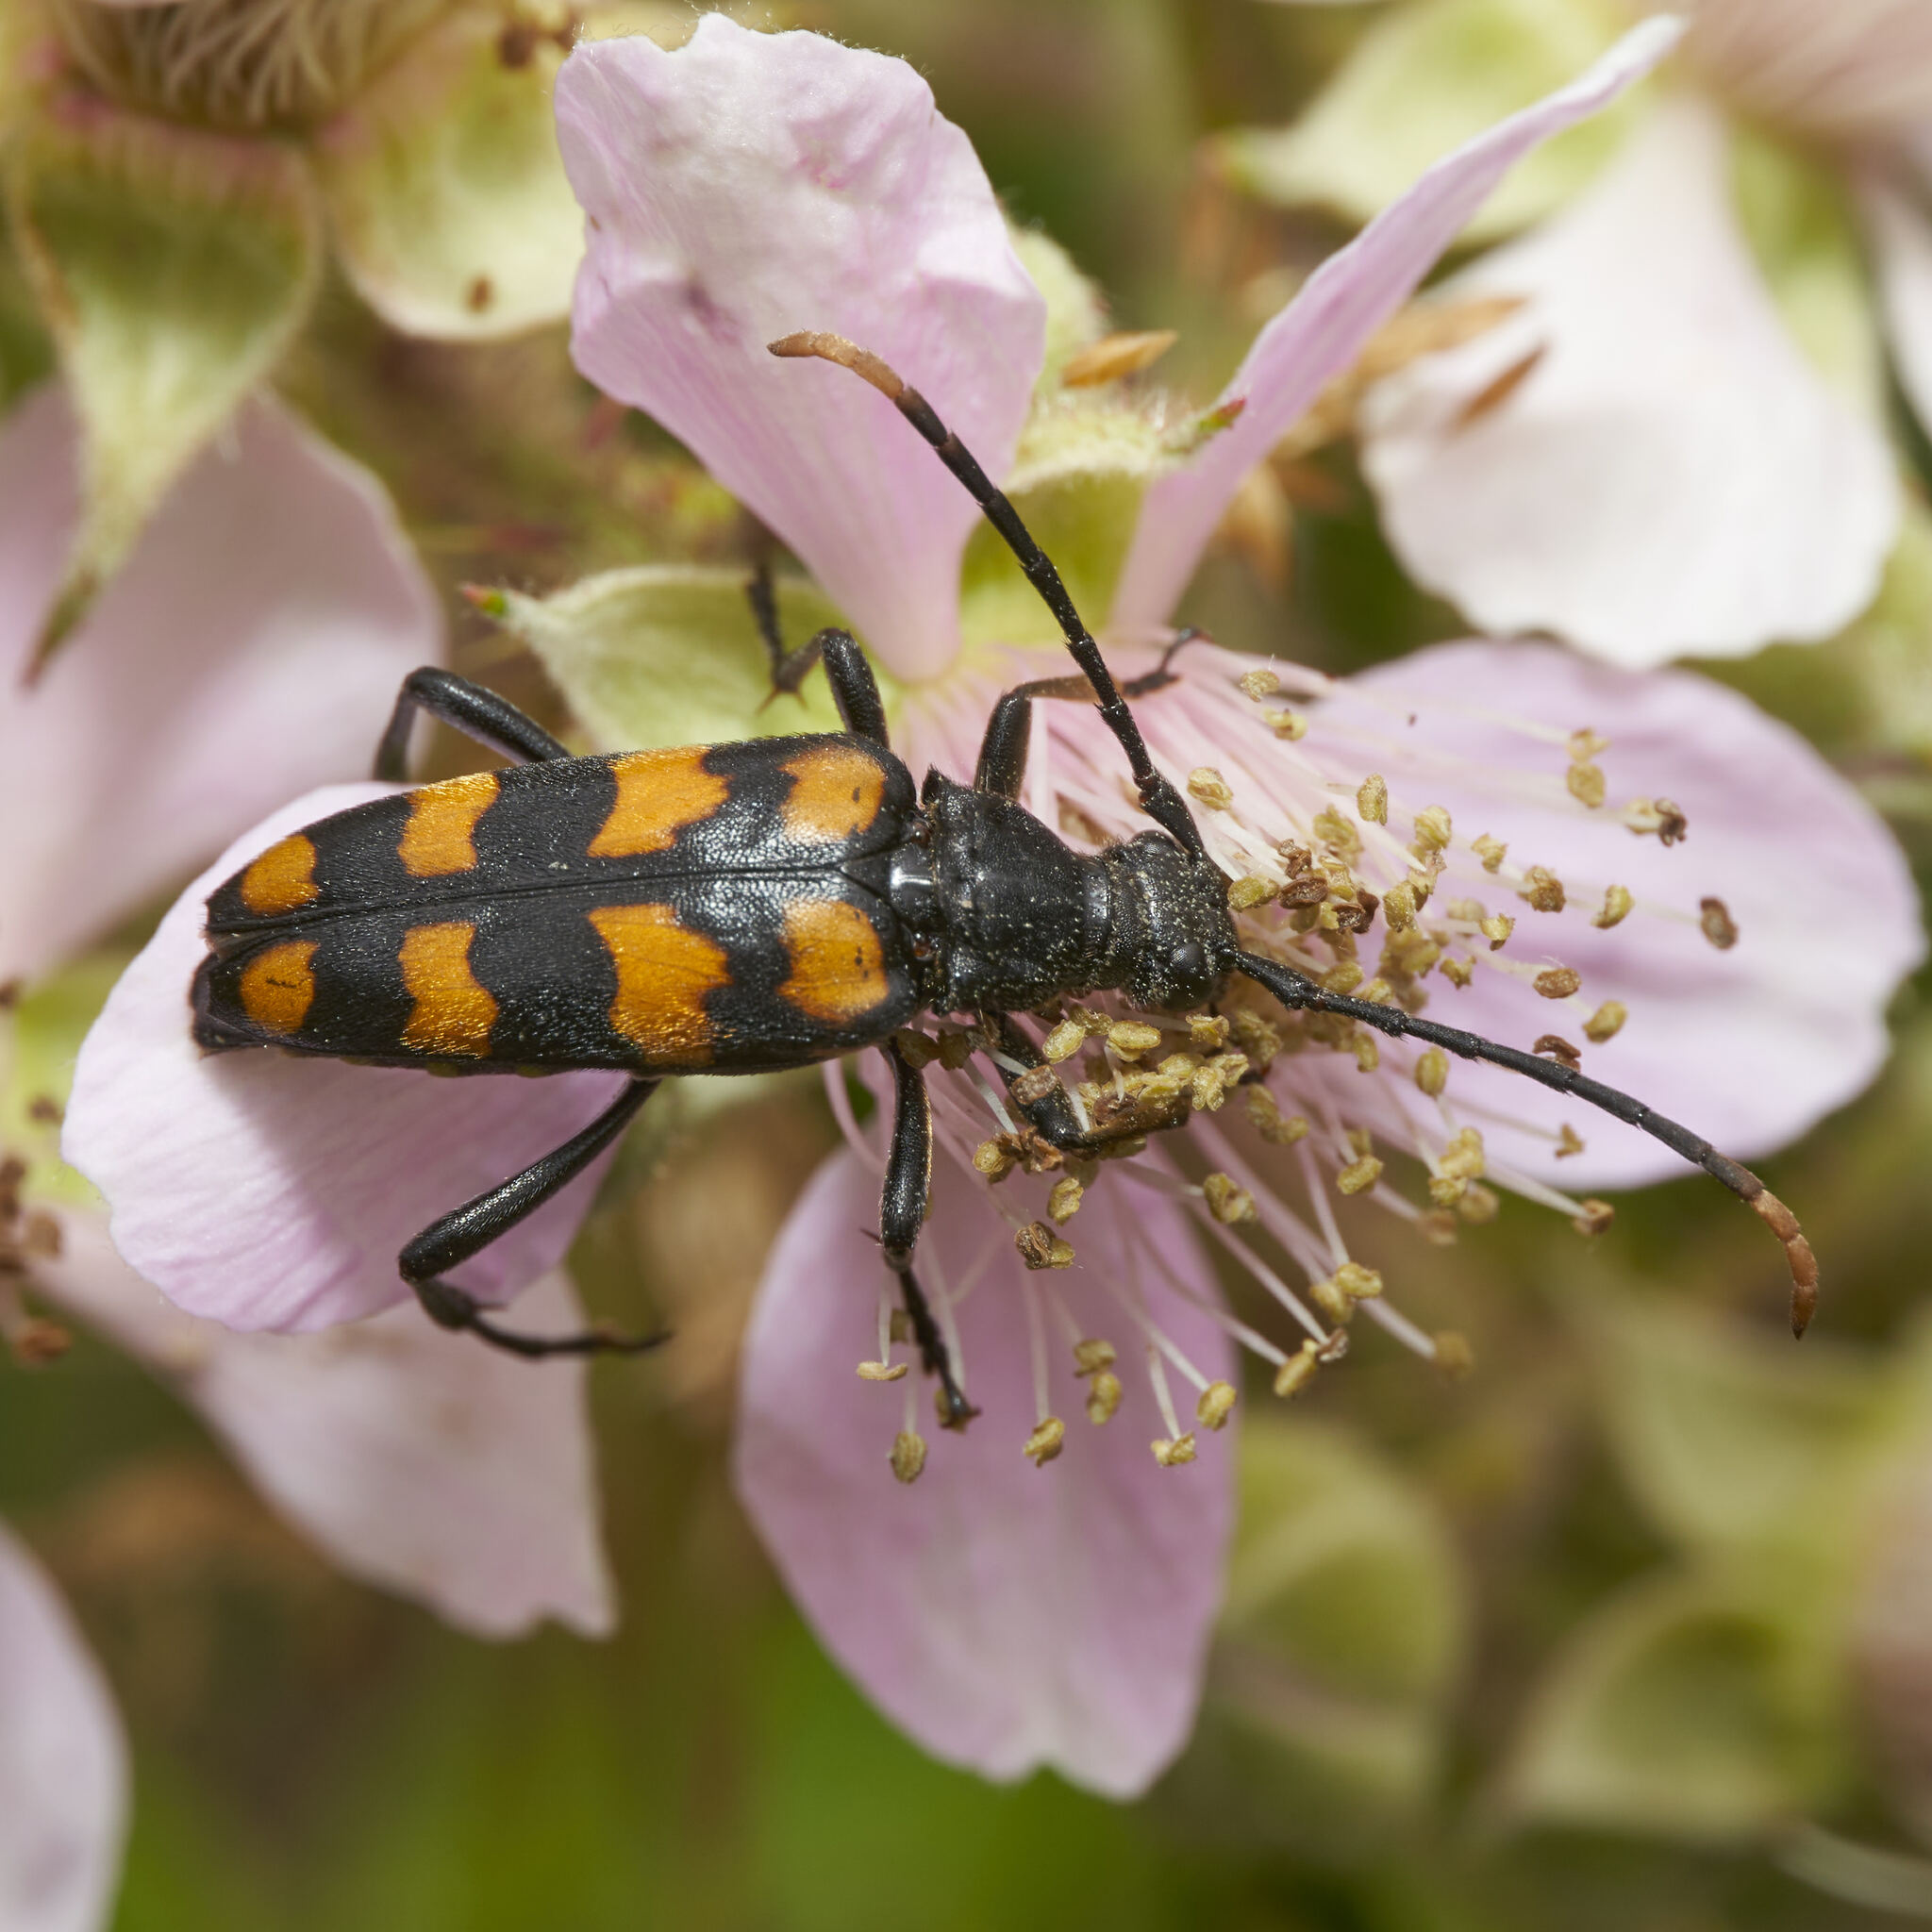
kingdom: Animalia
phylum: Arthropoda
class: Insecta
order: Coleoptera
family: Cerambycidae
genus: Leptura
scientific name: Leptura quadrifasciata
